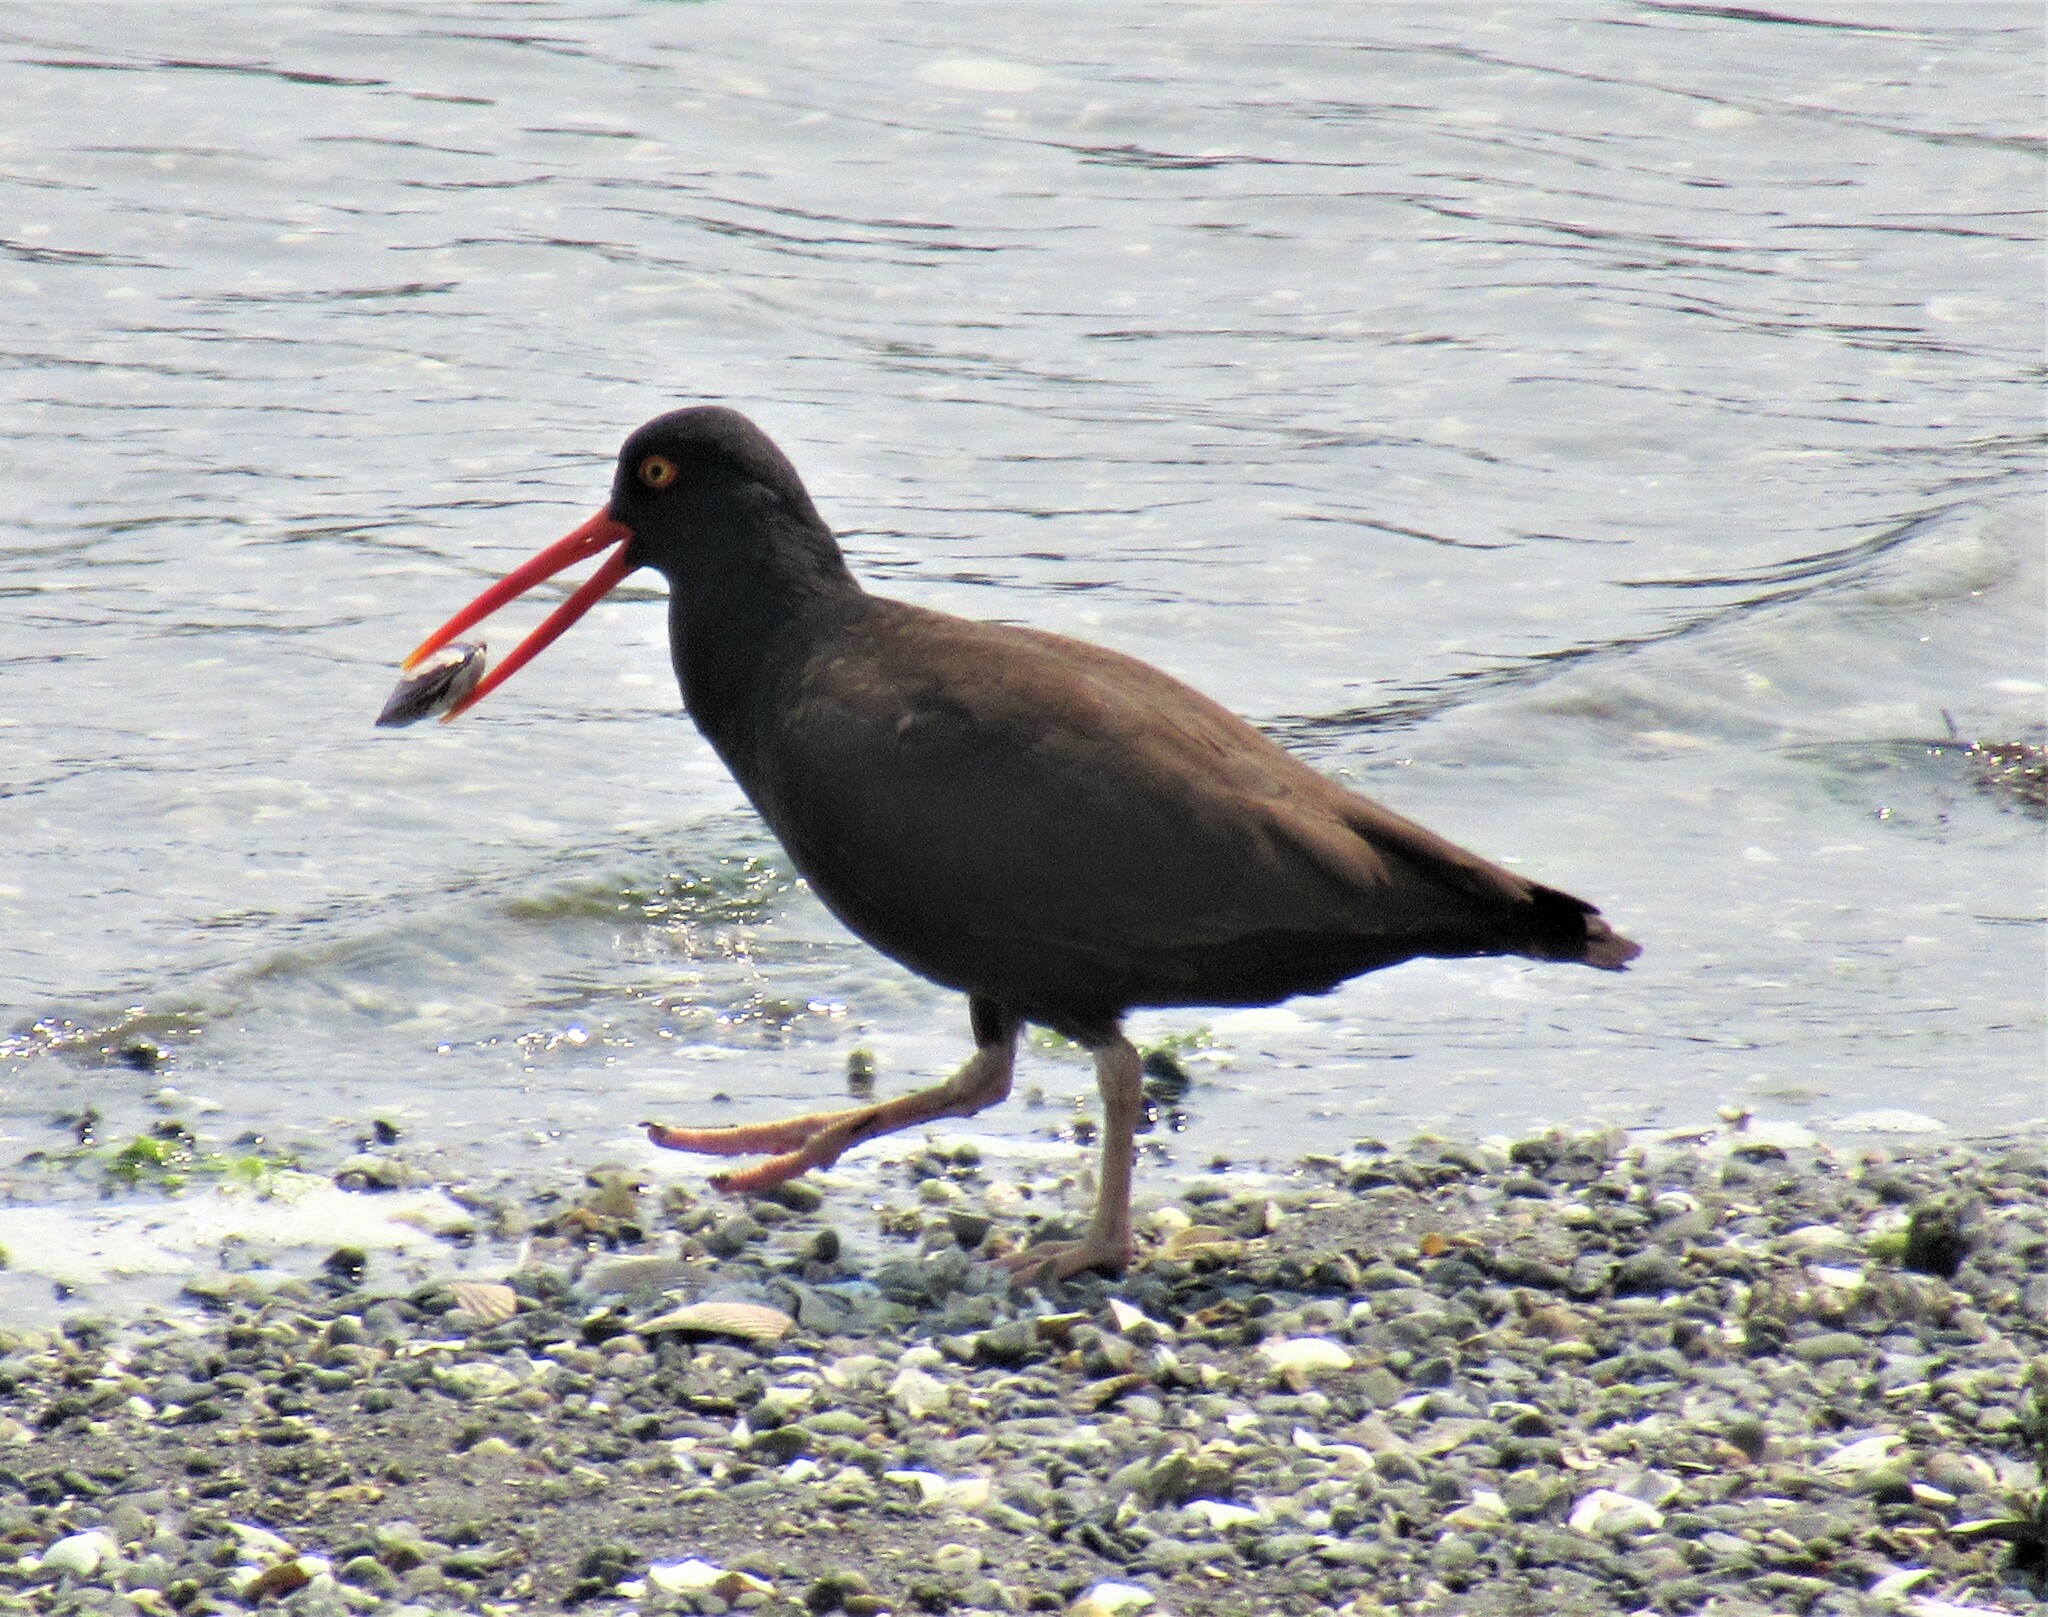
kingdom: Animalia
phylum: Chordata
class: Aves
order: Charadriiformes
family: Haematopodidae
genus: Haematopus
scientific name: Haematopus bachmani
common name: Black oystercatcher
